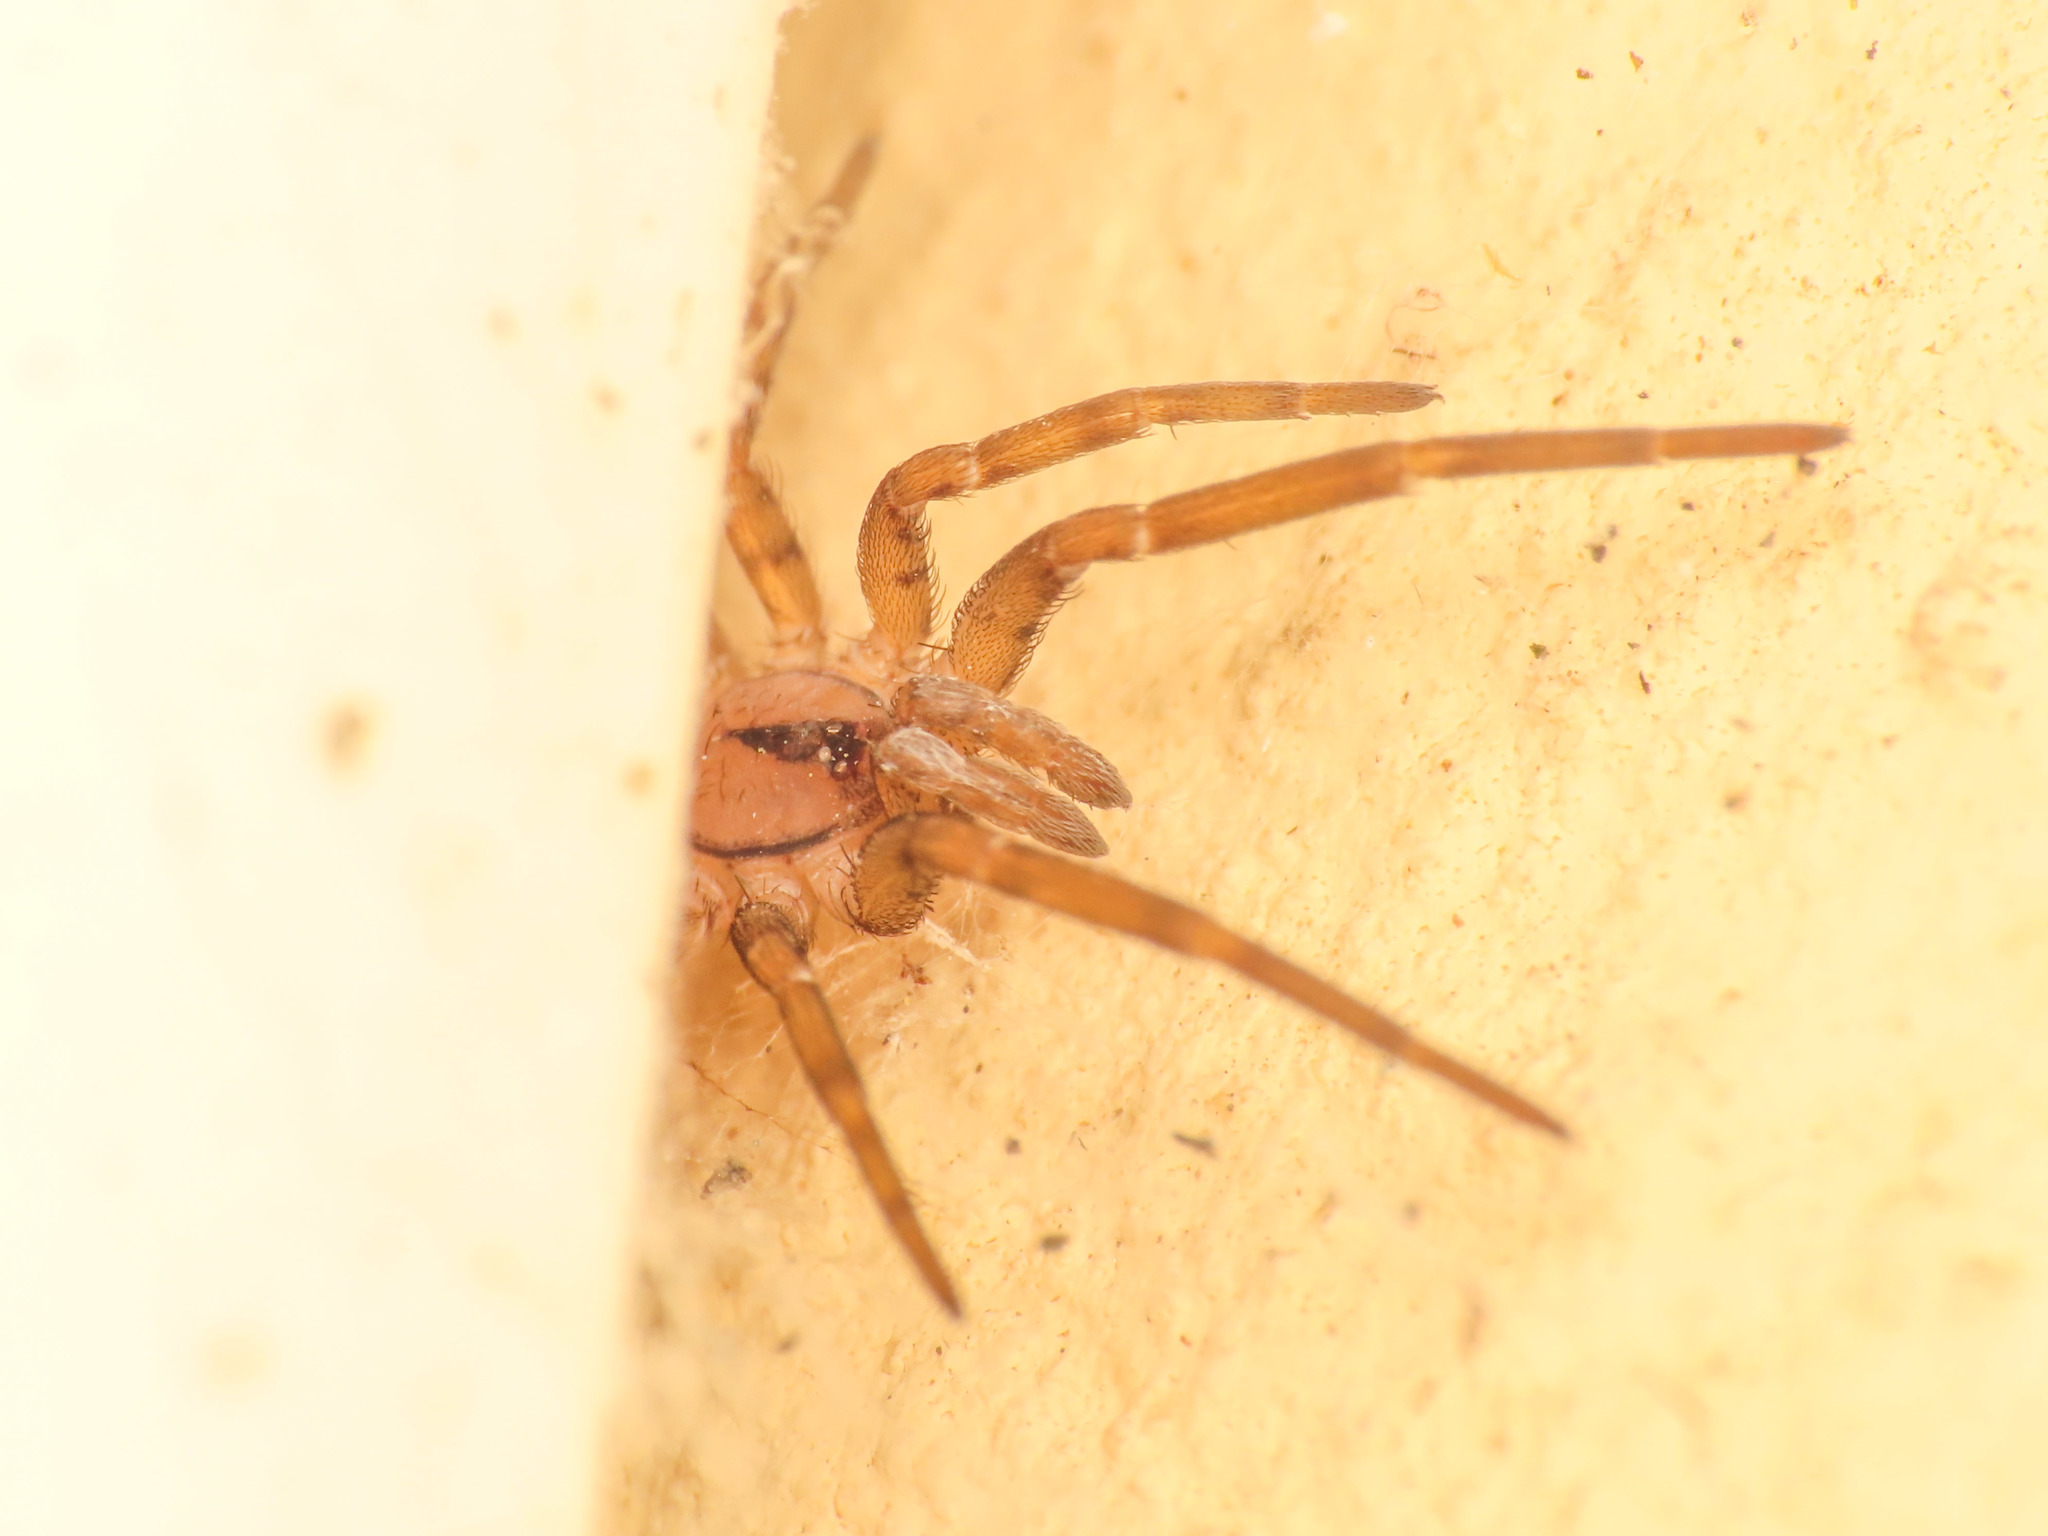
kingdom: Animalia
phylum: Arthropoda
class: Arachnida
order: Araneae
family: Filistatidae
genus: Filistata
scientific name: Filistata insidiatrix
